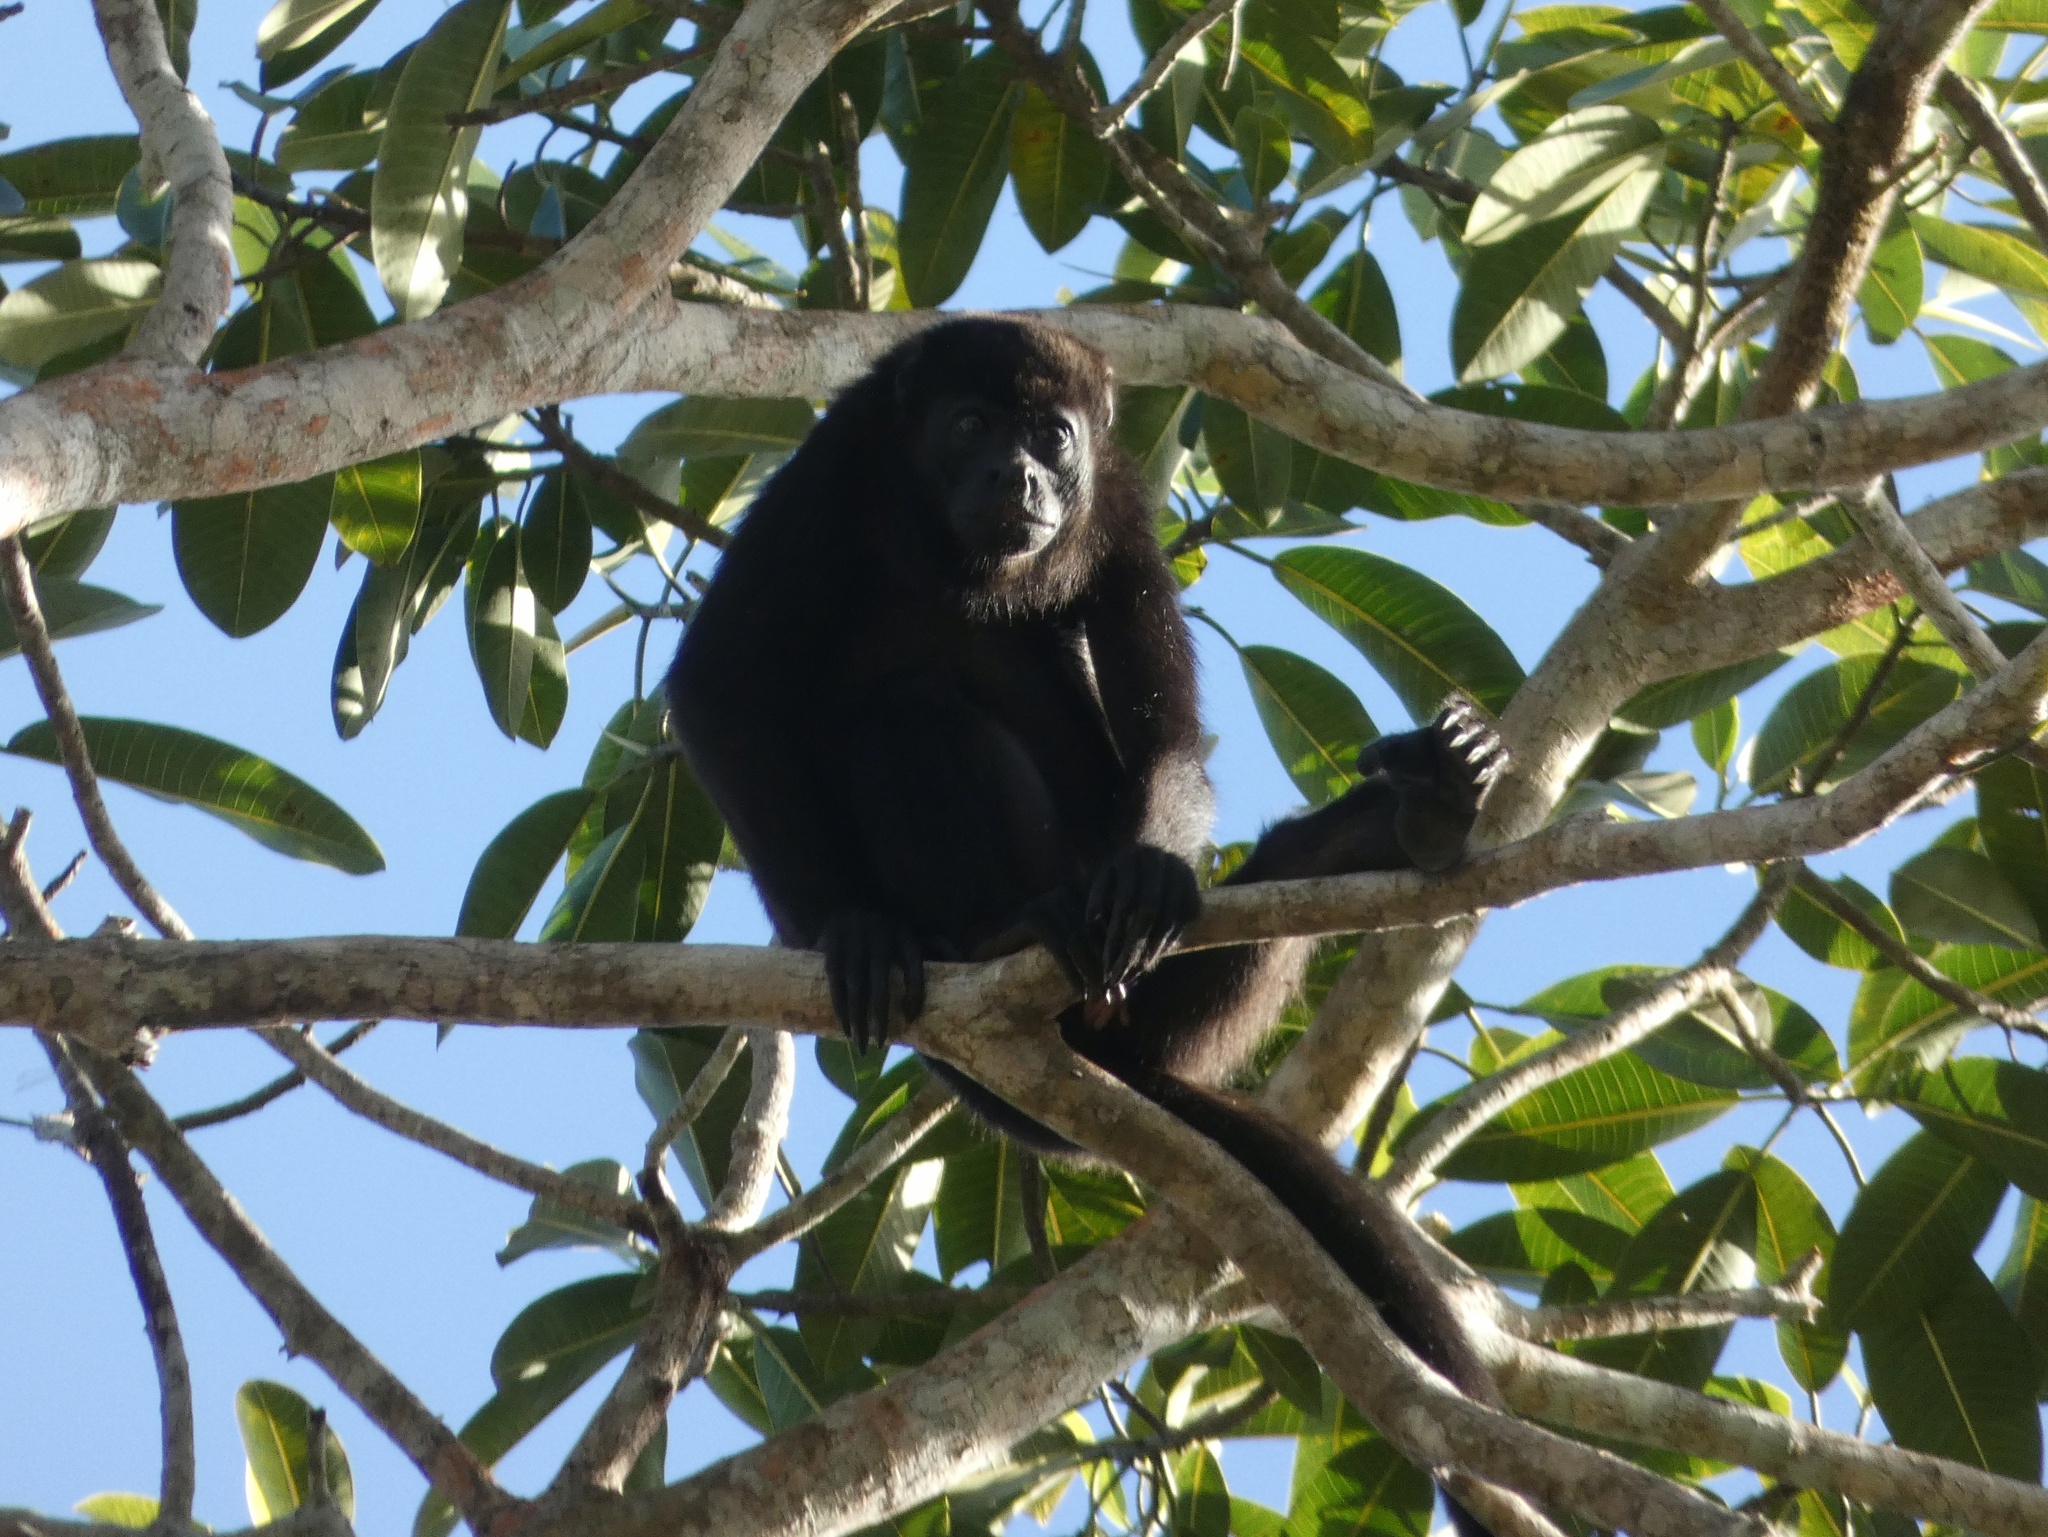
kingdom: Animalia
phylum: Chordata
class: Mammalia
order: Primates
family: Atelidae
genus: Alouatta
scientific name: Alouatta palliata
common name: Mantled howler
